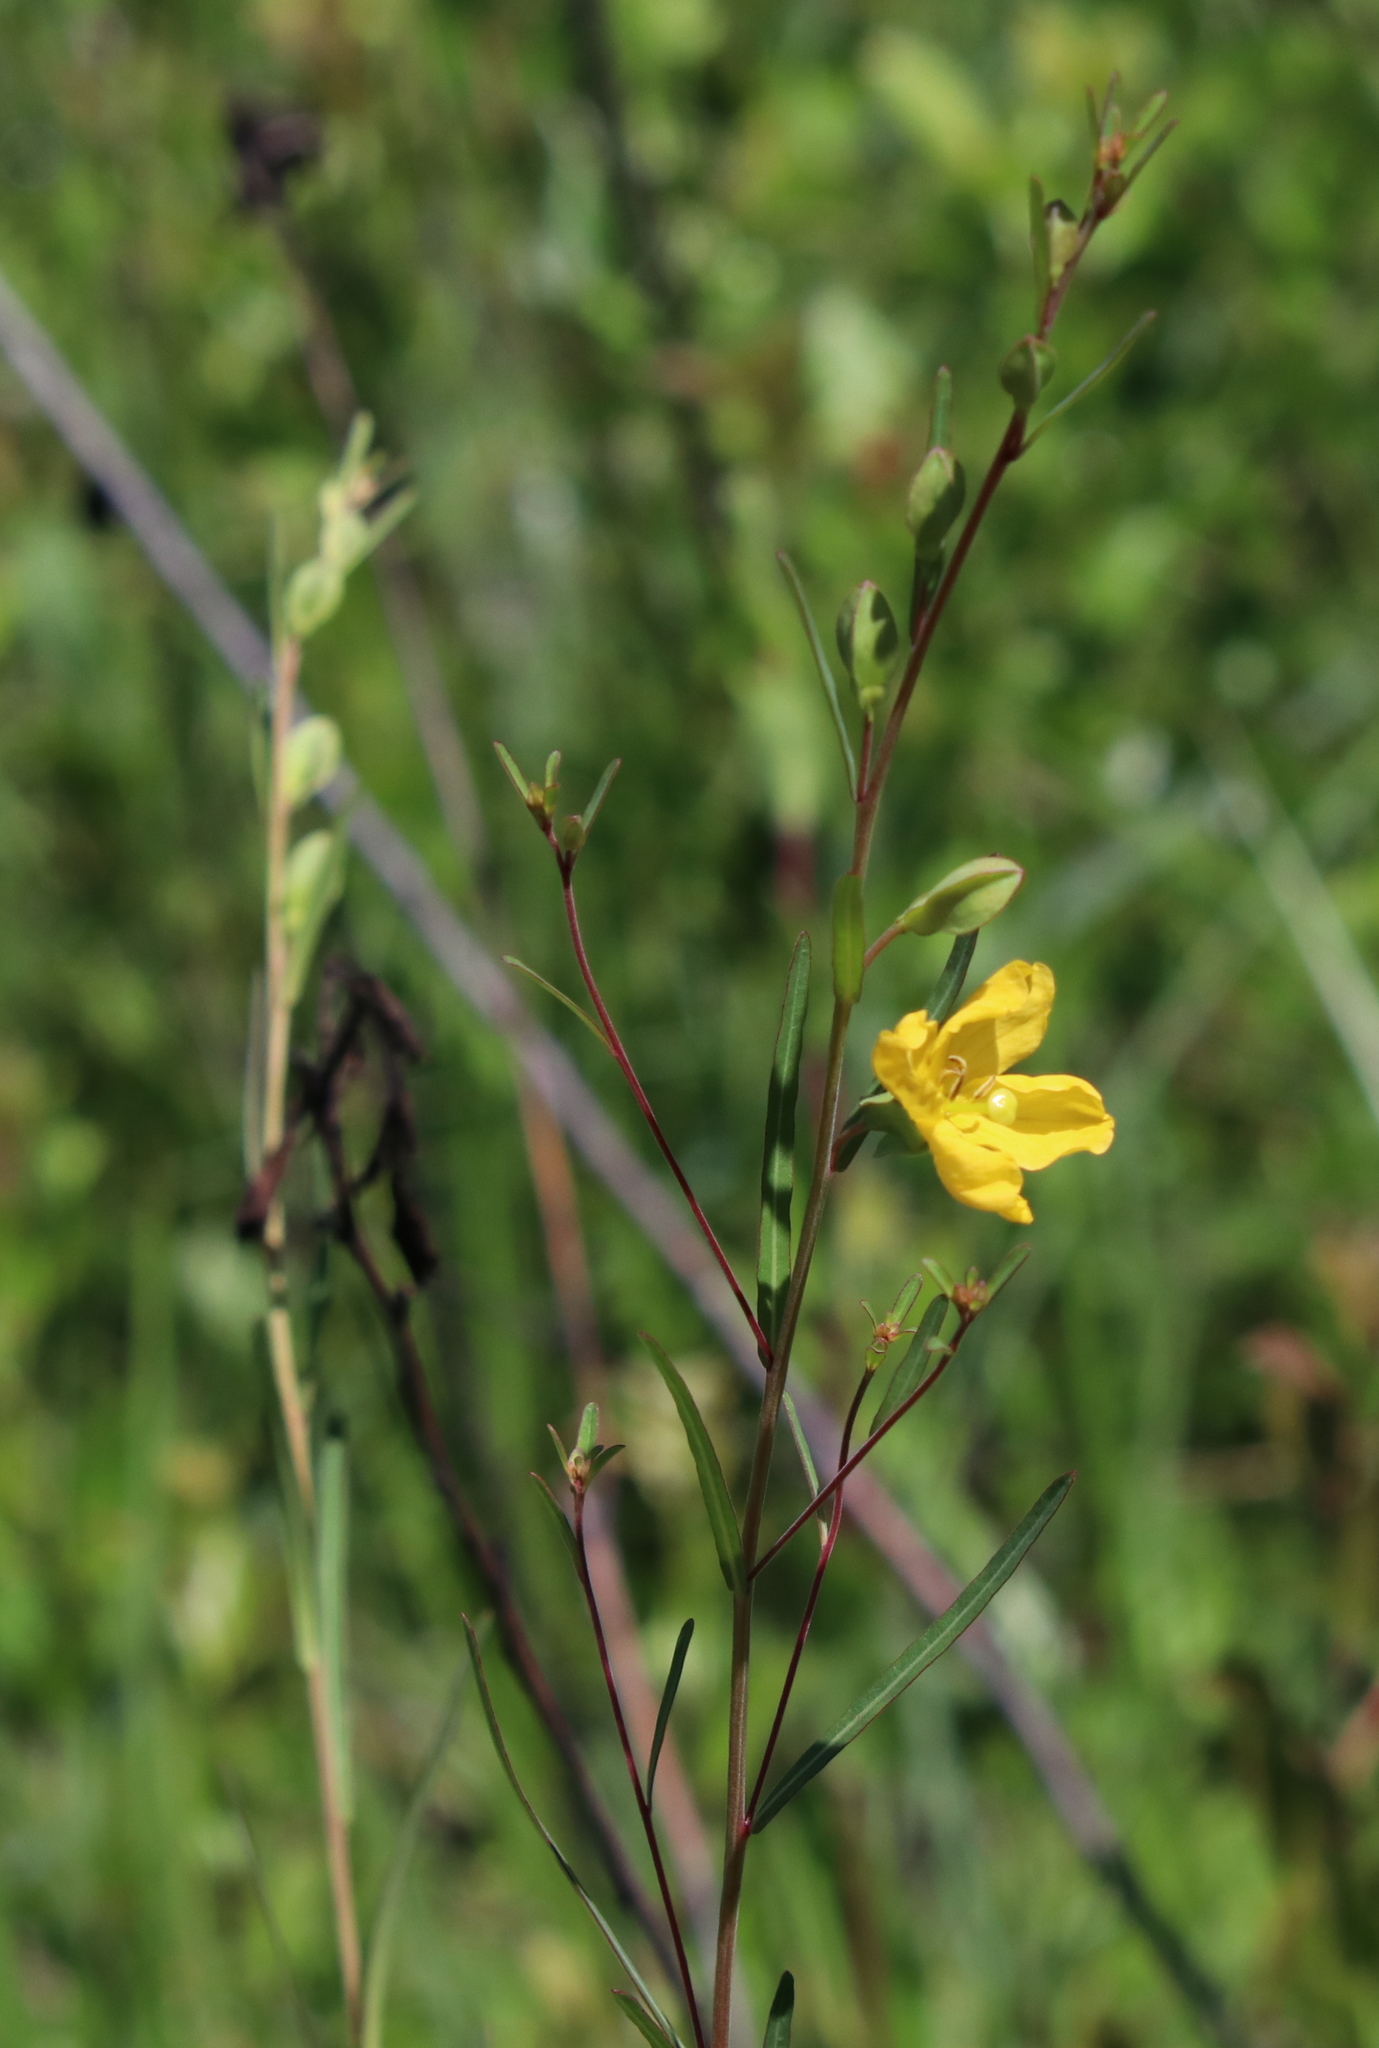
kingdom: Plantae
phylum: Tracheophyta
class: Magnoliopsida
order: Myrtales
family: Onagraceae
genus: Ludwigia
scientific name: Ludwigia maritima
